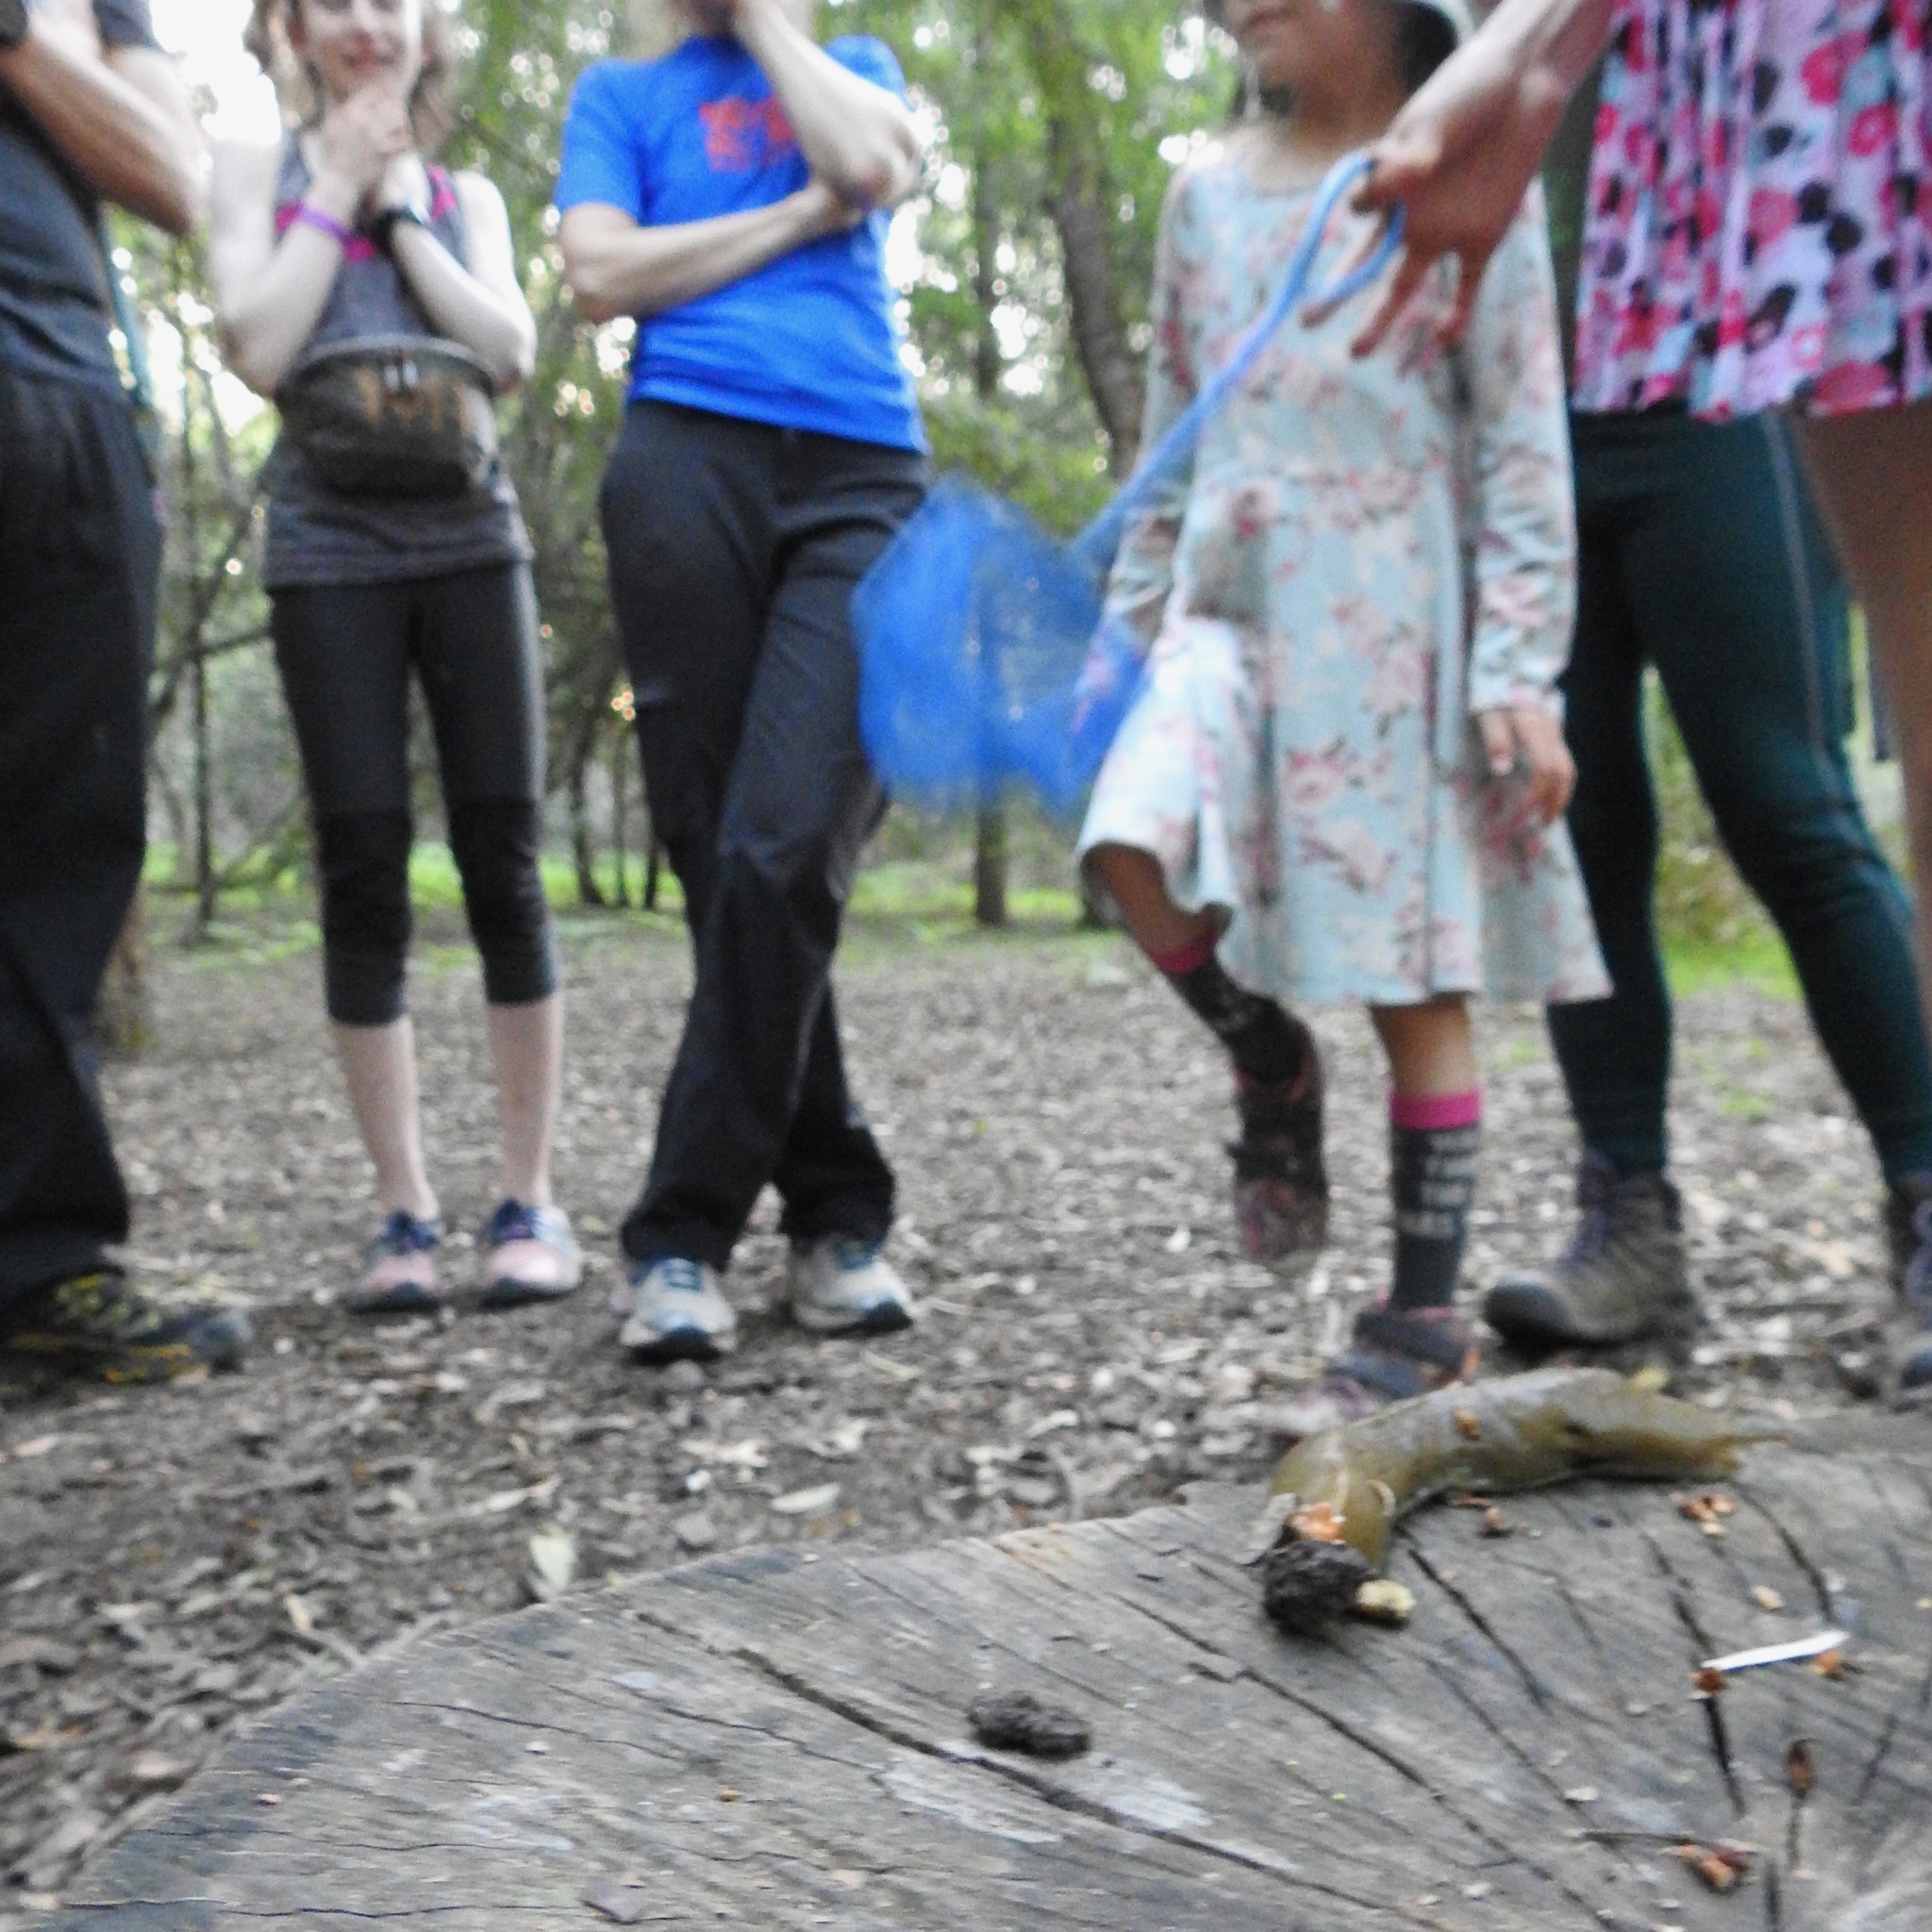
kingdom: Animalia
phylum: Mollusca
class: Gastropoda
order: Stylommatophora
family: Ariolimacidae
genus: Ariolimax
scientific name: Ariolimax buttoni
